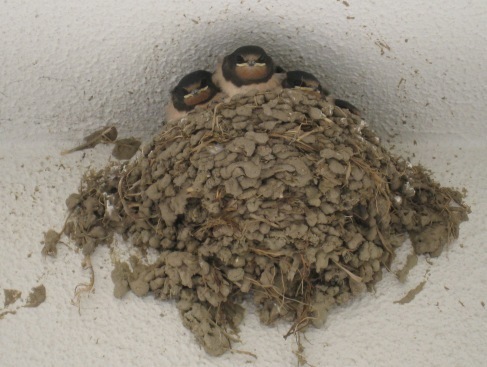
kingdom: Animalia
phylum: Chordata
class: Aves
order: Passeriformes
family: Hirundinidae
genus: Hirundo
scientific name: Hirundo rustica
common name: Barn swallow
